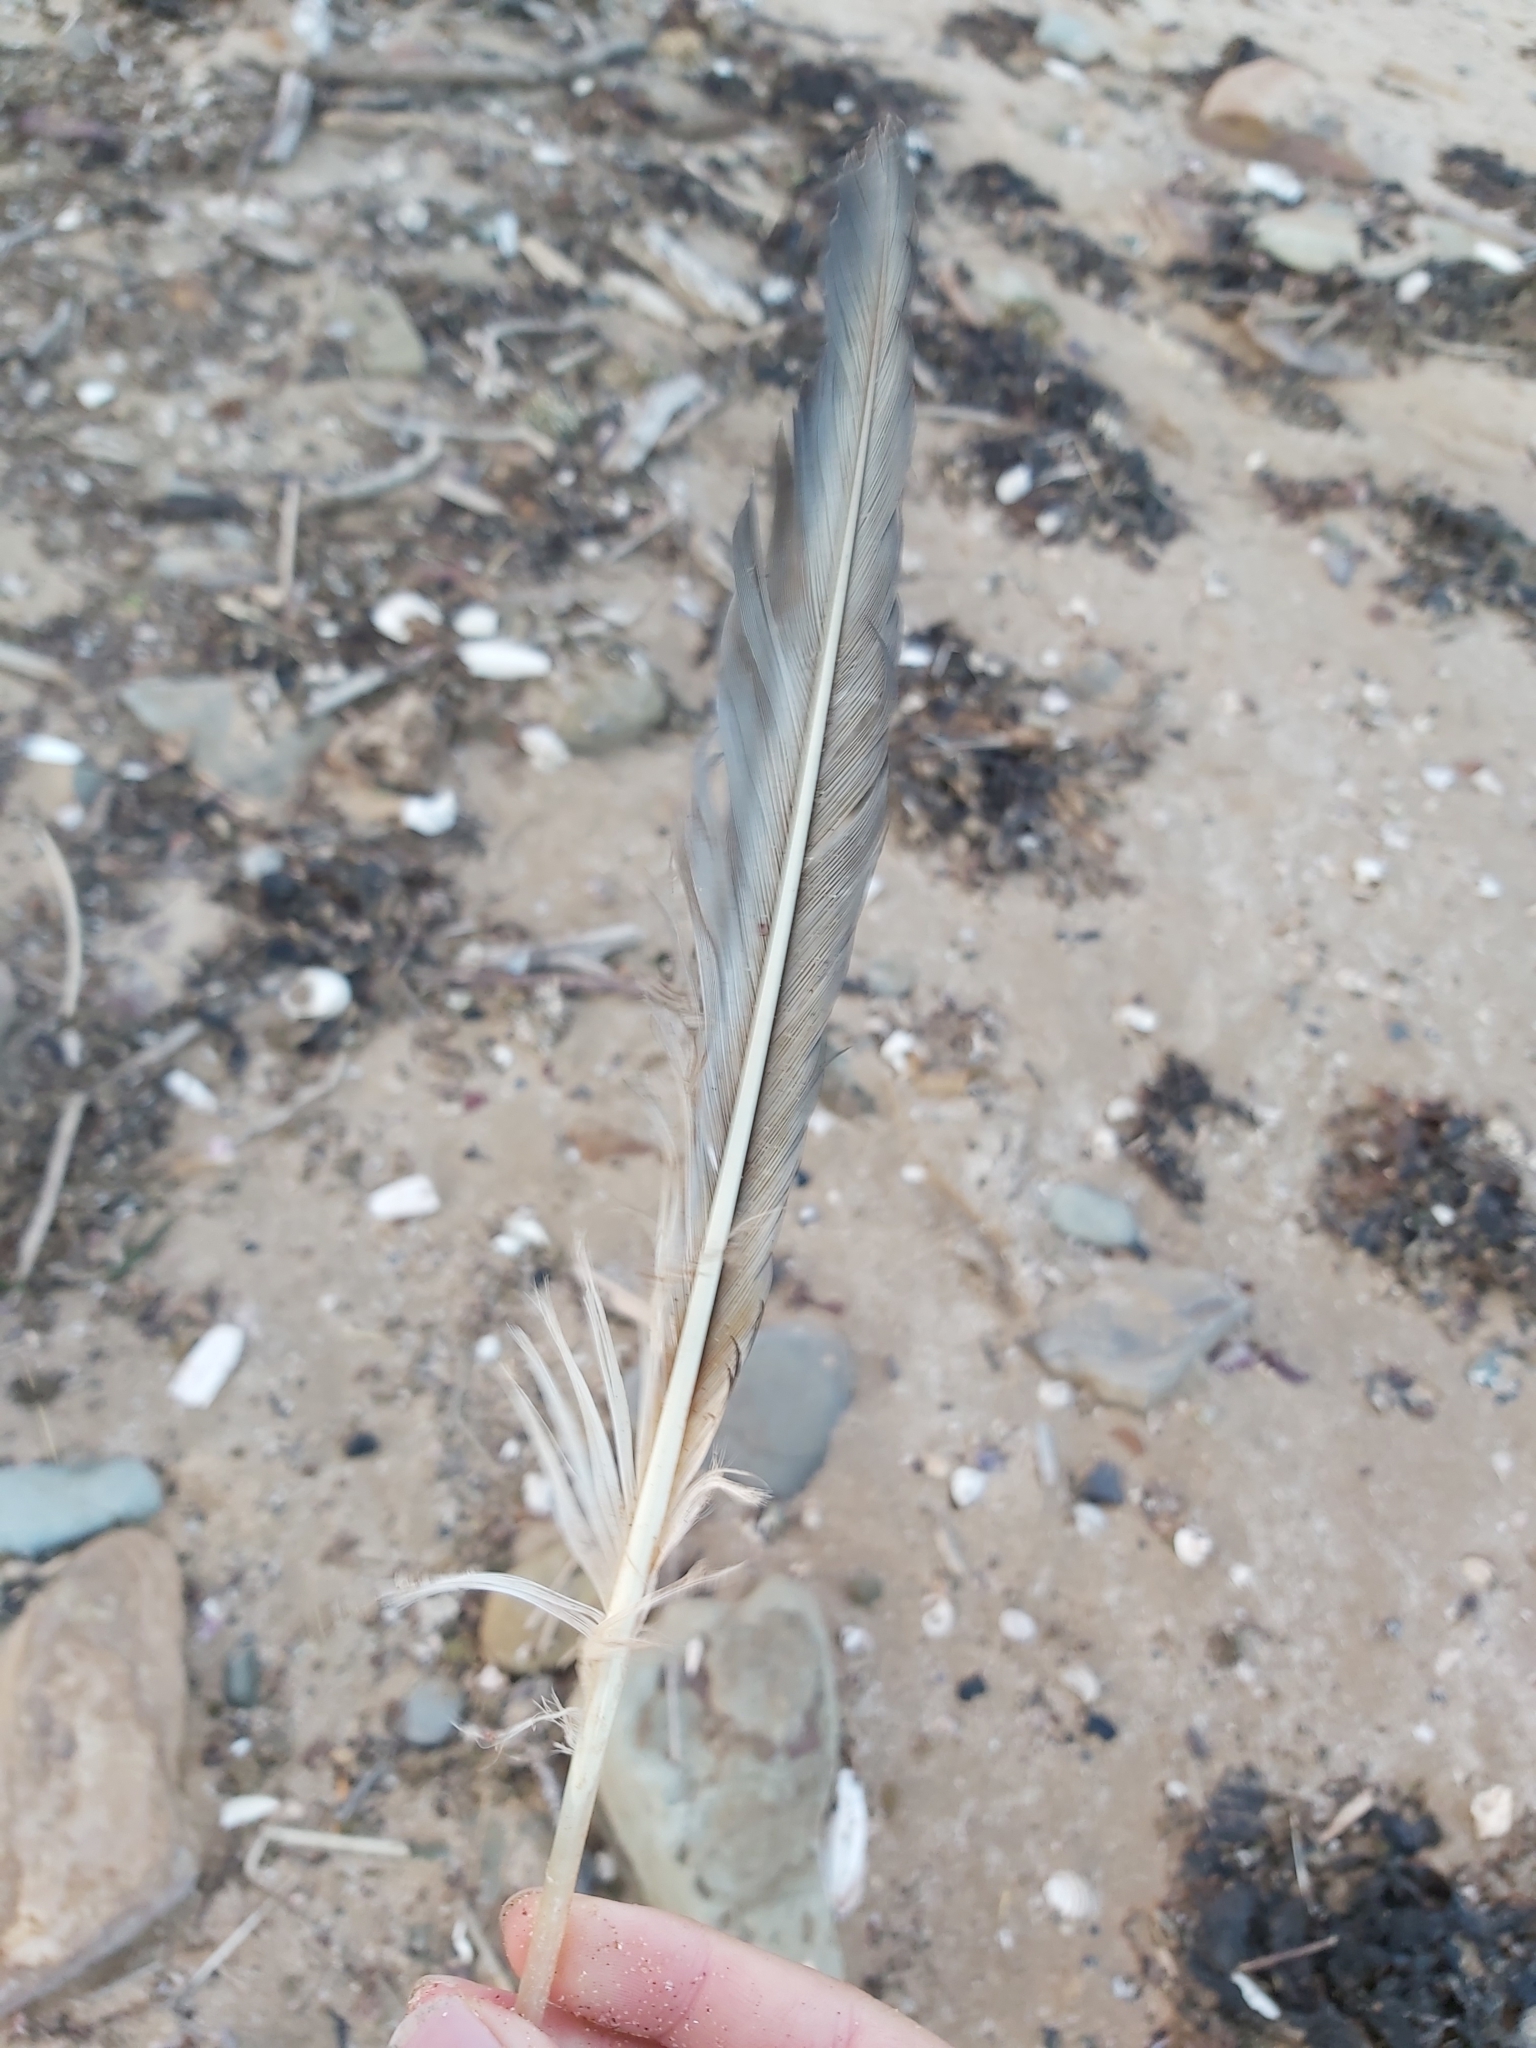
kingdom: Animalia
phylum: Chordata
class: Aves
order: Suliformes
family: Sulidae
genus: Morus
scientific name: Morus serrator
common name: Australasian gannet
